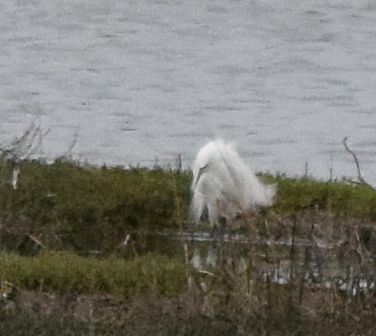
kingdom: Animalia
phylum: Chordata
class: Aves
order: Pelecaniformes
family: Ardeidae
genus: Egretta
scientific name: Egretta thula
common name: Snowy egret
